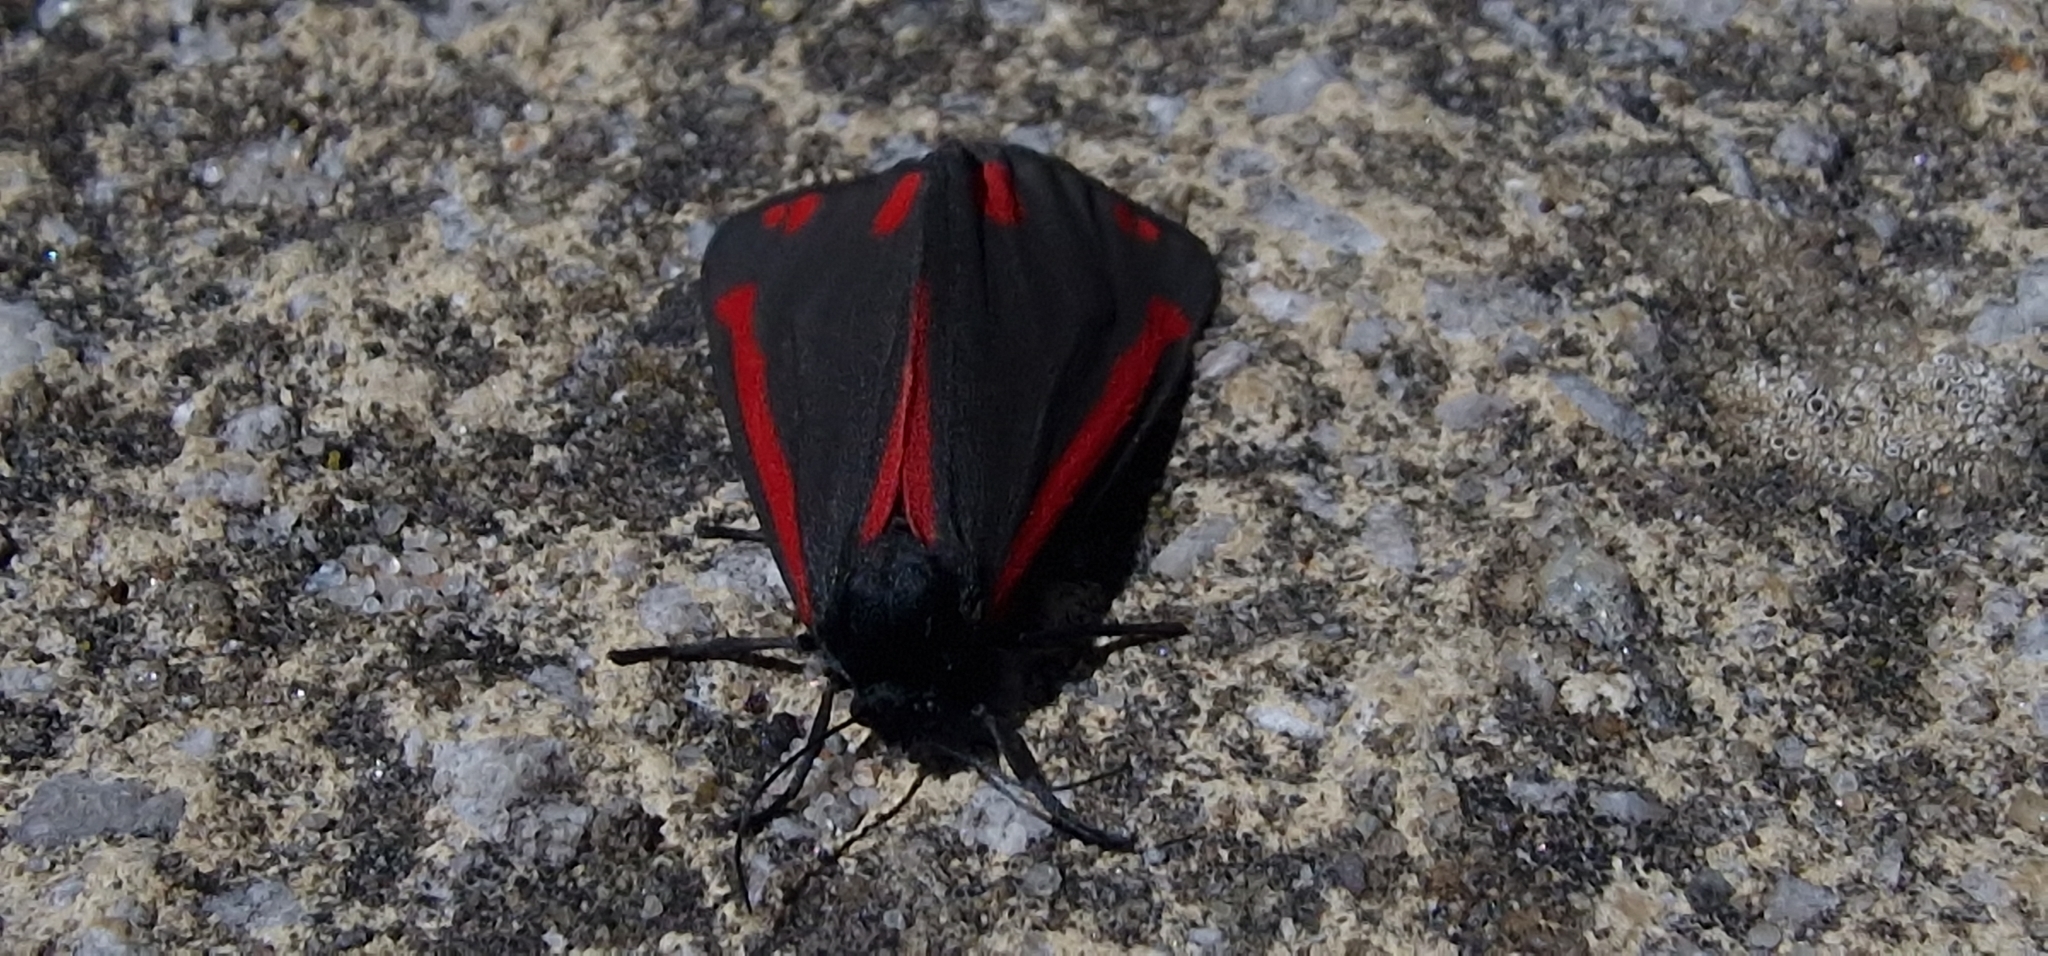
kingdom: Animalia
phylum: Arthropoda
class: Insecta
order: Lepidoptera
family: Erebidae
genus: Tyria
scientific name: Tyria jacobaeae
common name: Cinnabar
